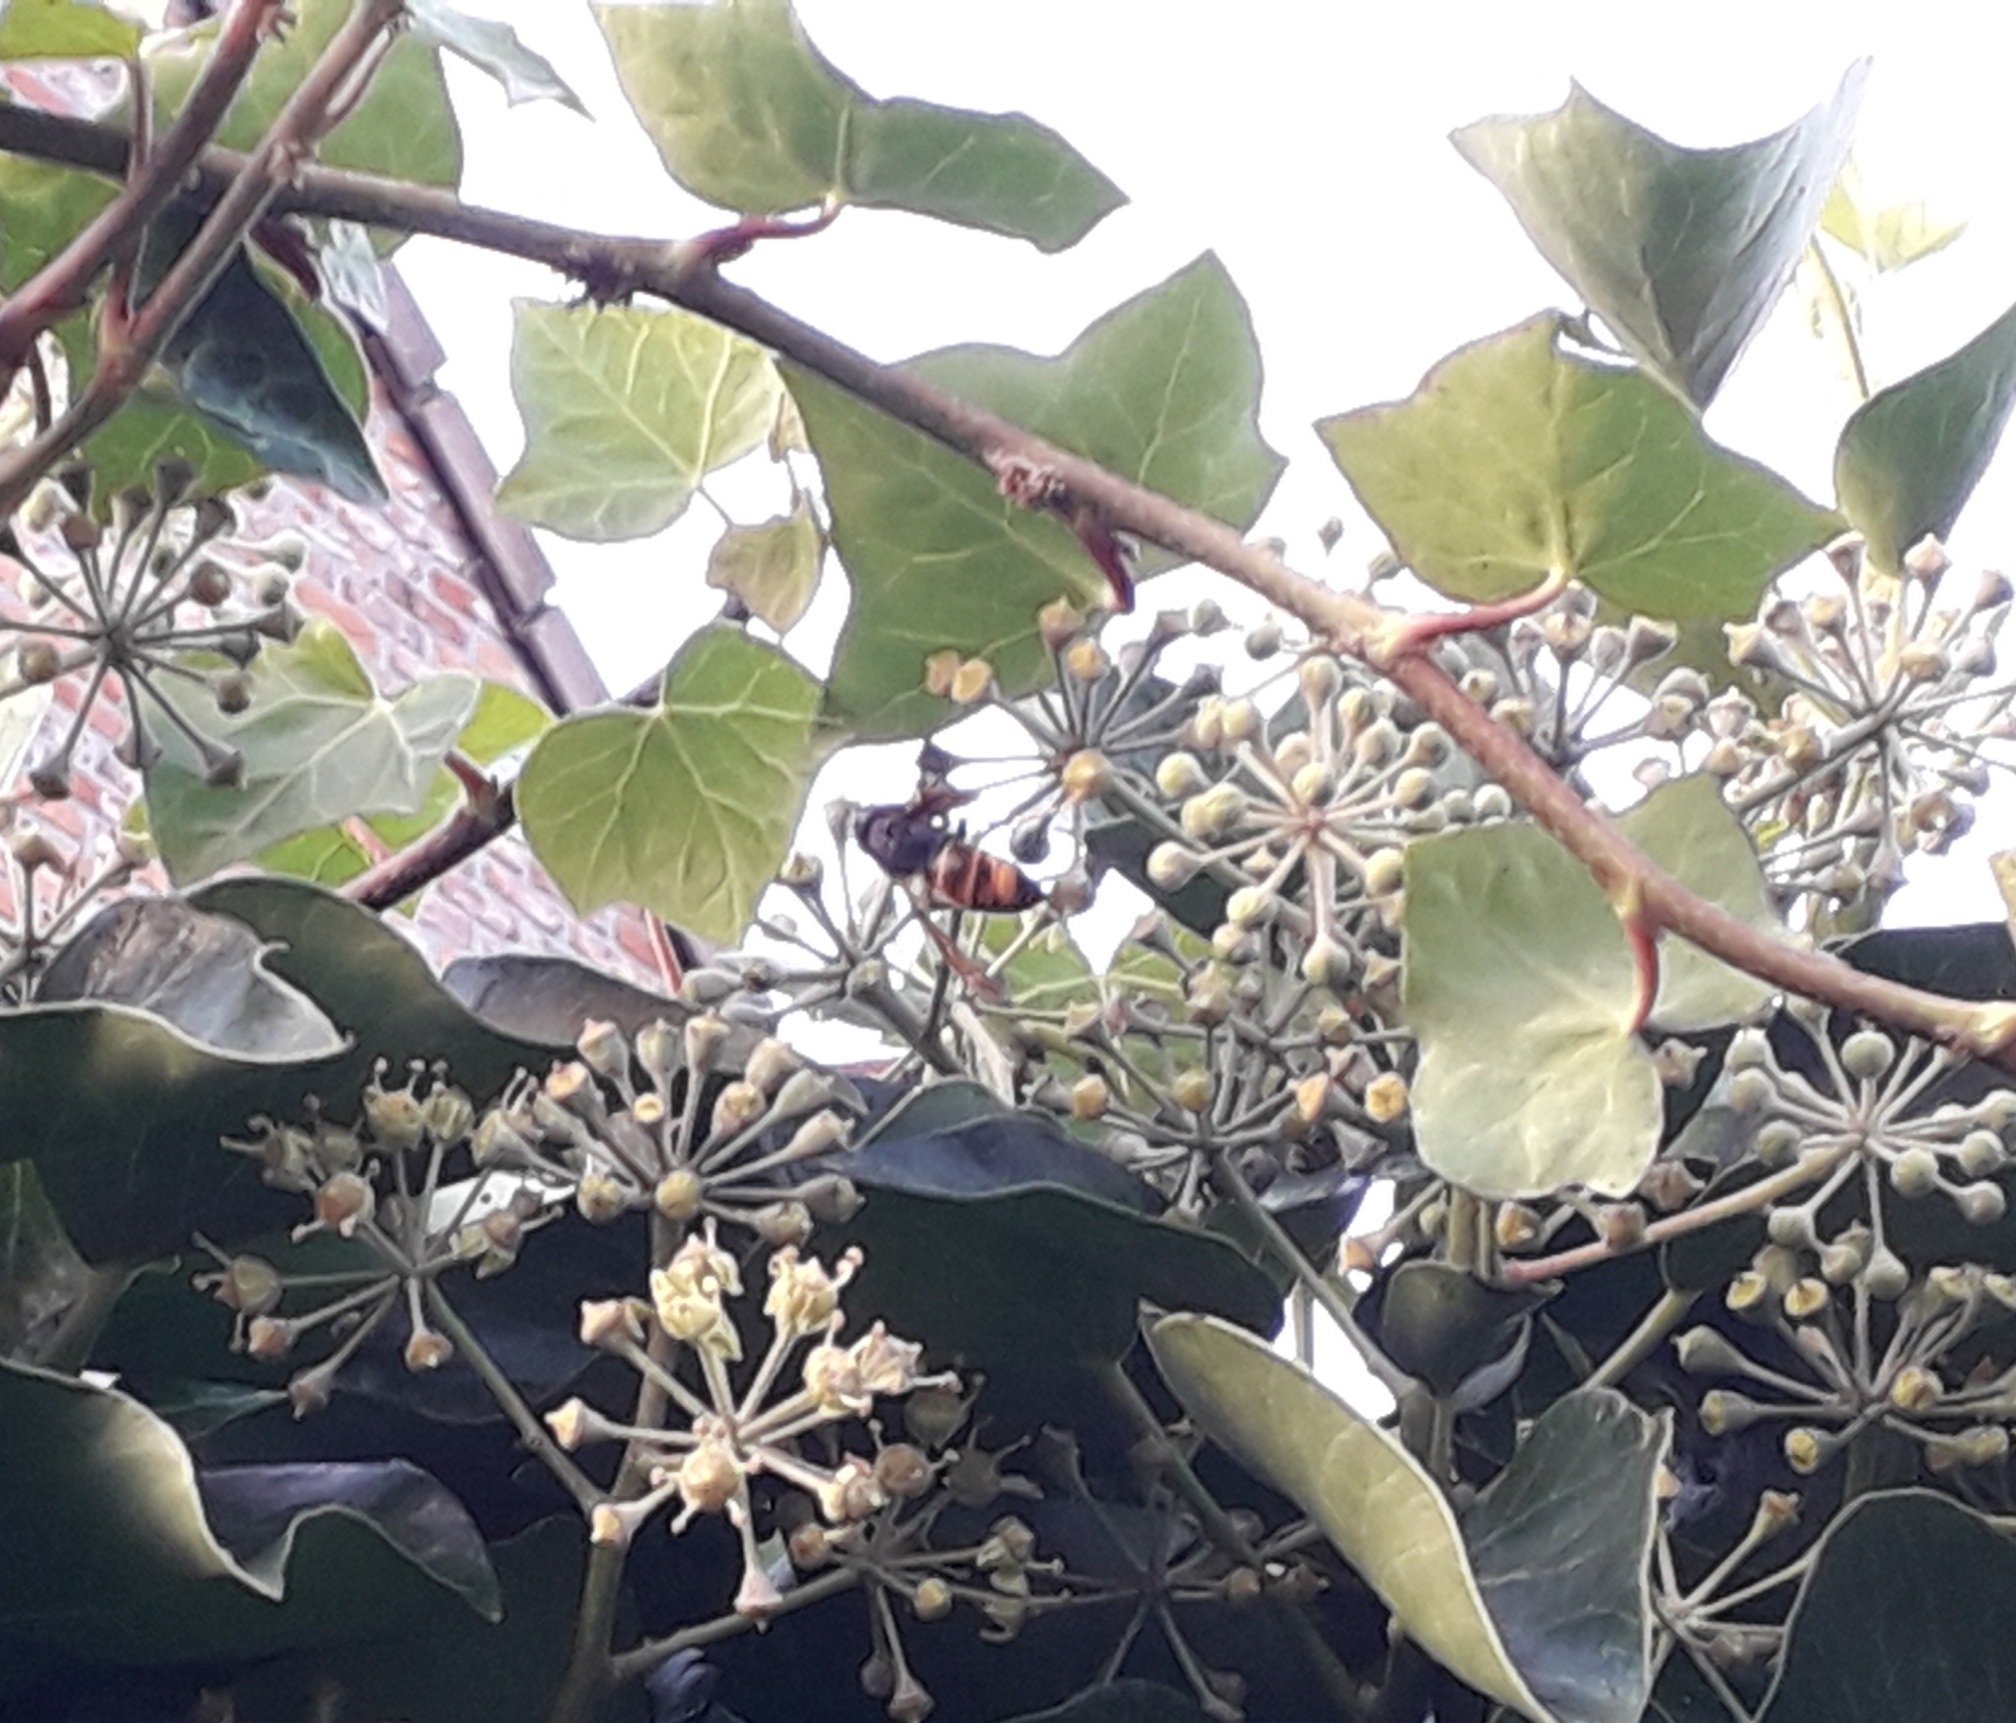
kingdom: Animalia
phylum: Arthropoda
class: Insecta
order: Hymenoptera
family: Vespidae
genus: Vespa
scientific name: Vespa velutina
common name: Asian hornet
